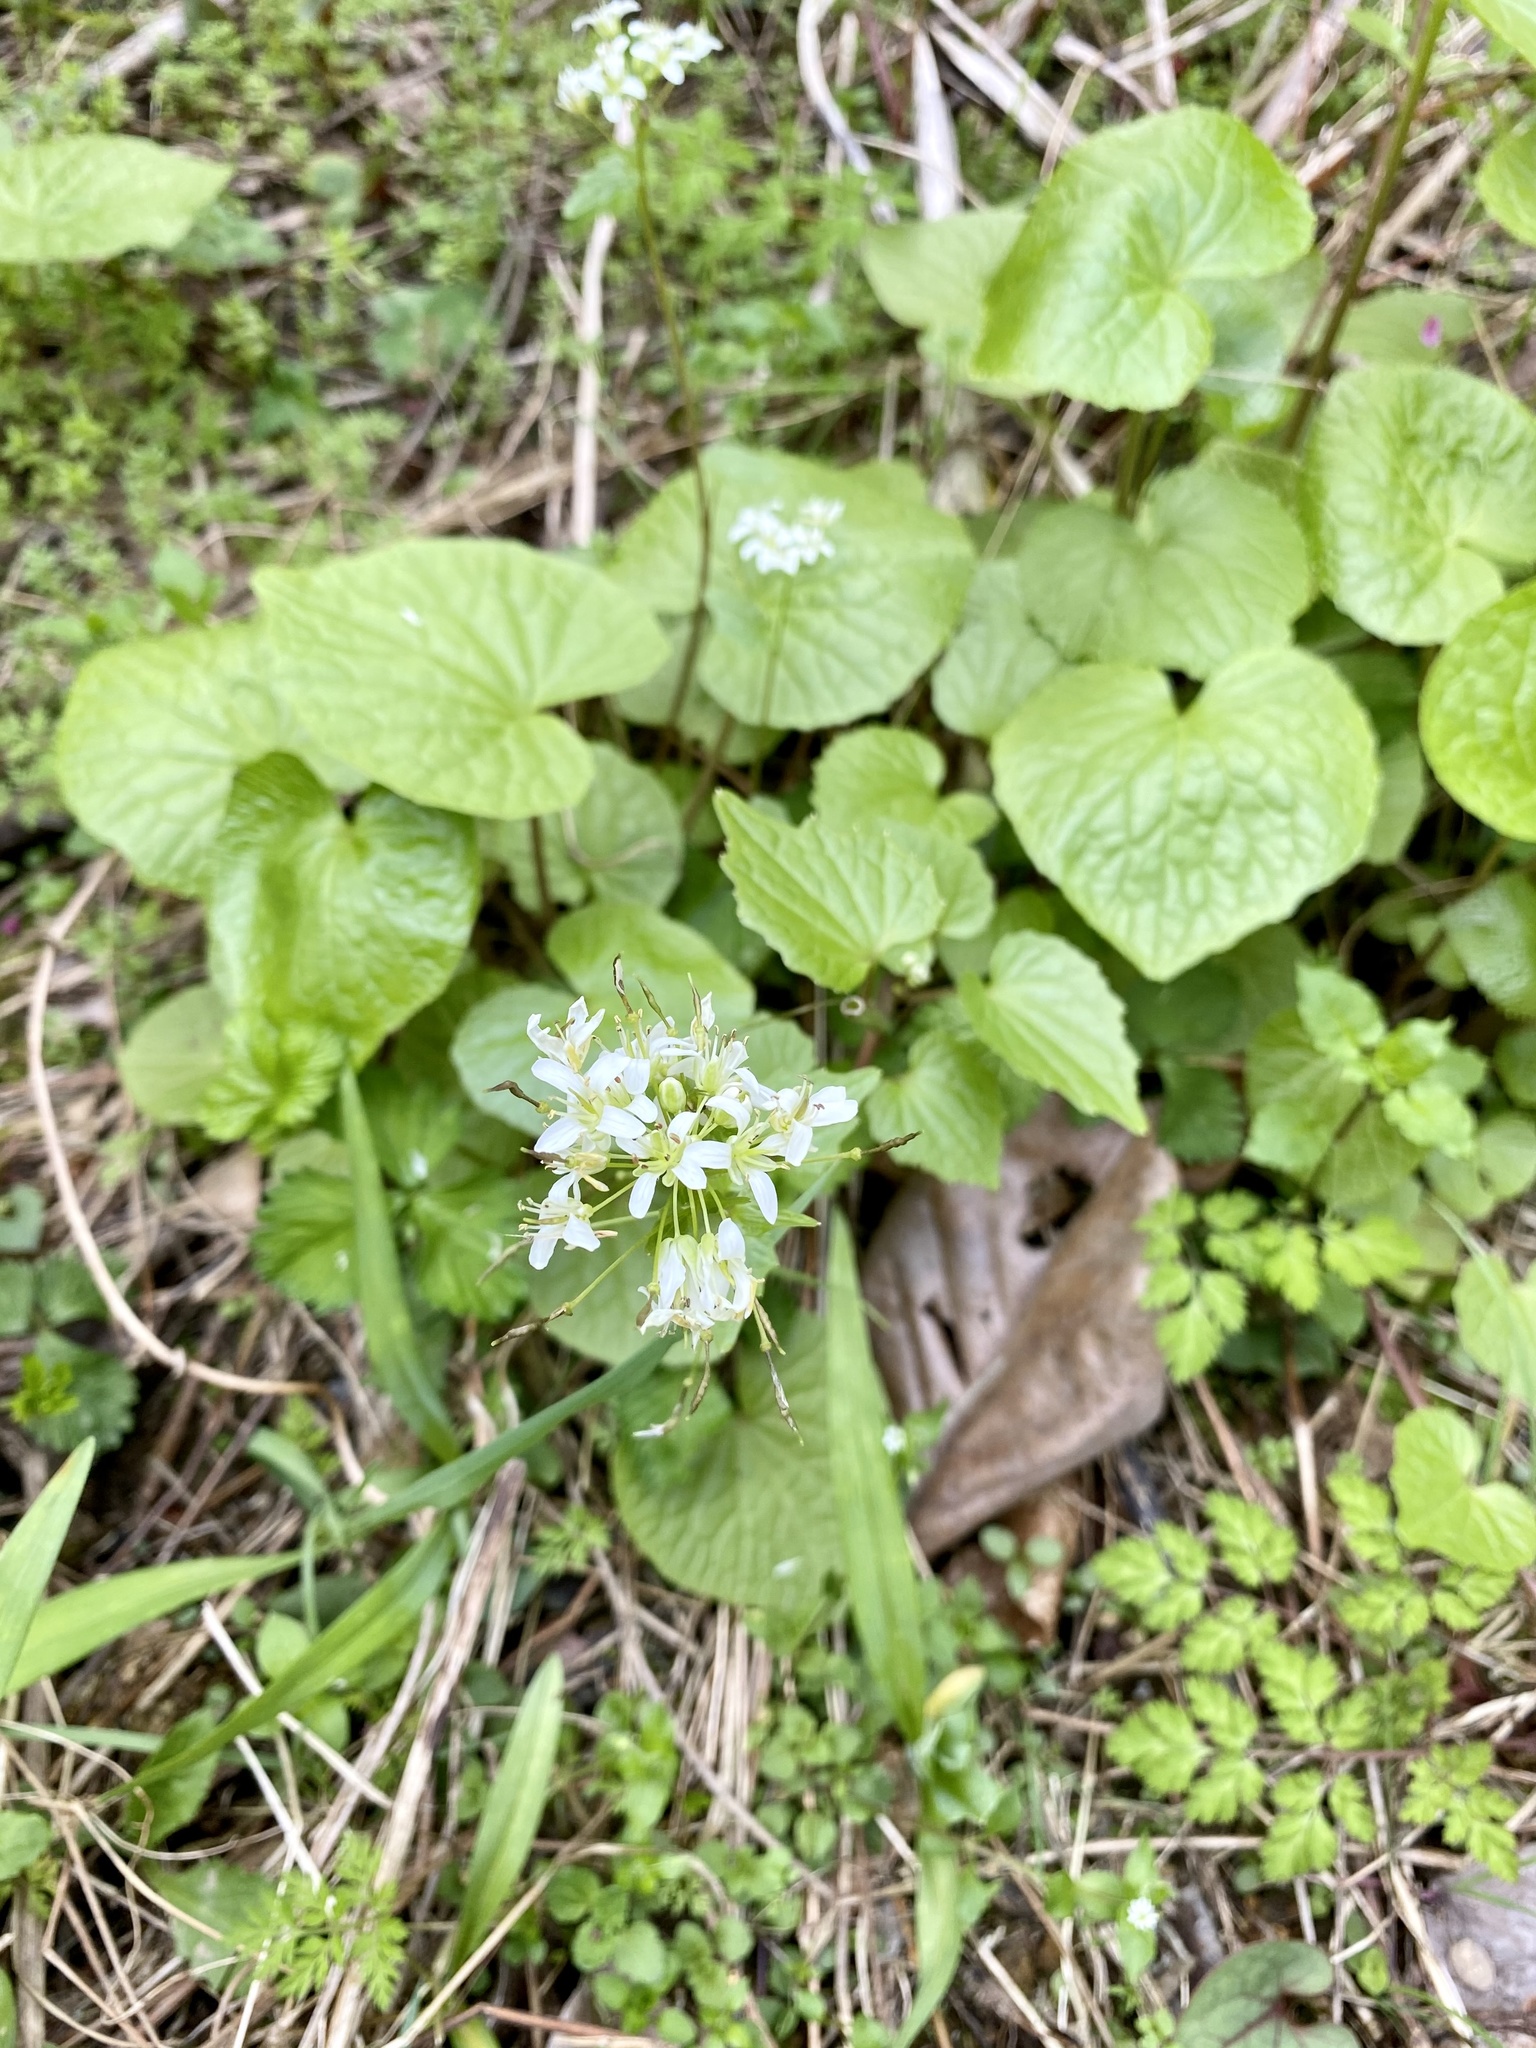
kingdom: Plantae
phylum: Tracheophyta
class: Magnoliopsida
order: Brassicales
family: Brassicaceae
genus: Eutrema
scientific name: Eutrema japonicum
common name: Japanese-horseradish
